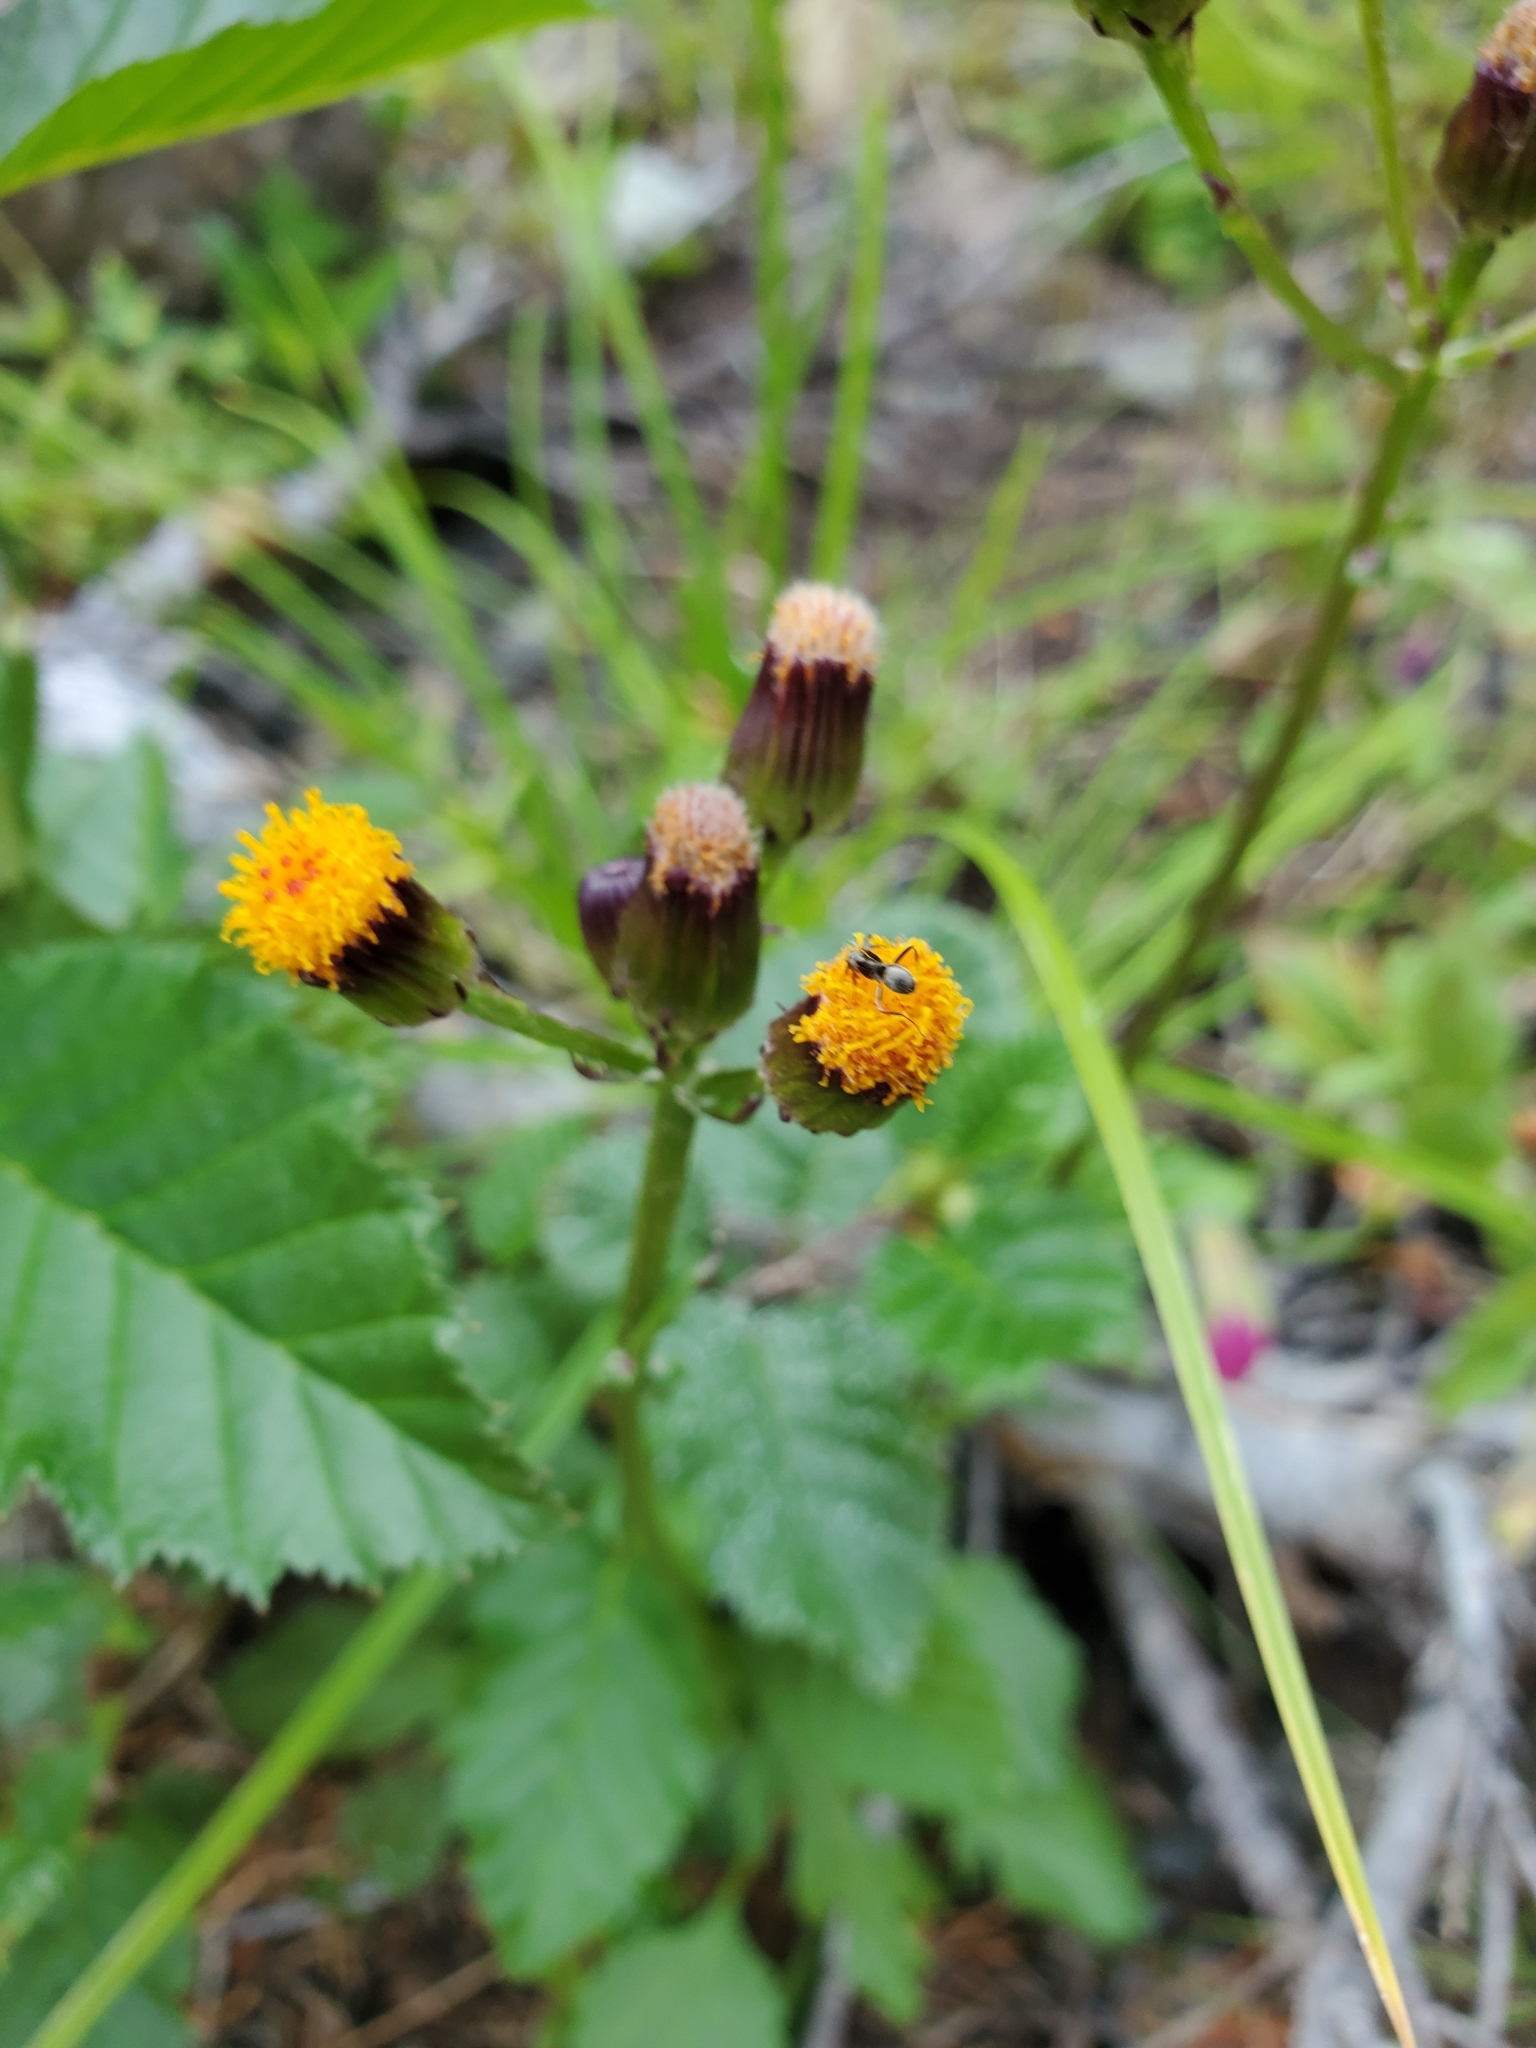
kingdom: Plantae
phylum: Tracheophyta
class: Magnoliopsida
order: Asterales
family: Asteraceae
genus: Packera
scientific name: Packera pauciflora
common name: Alpine groundsel
